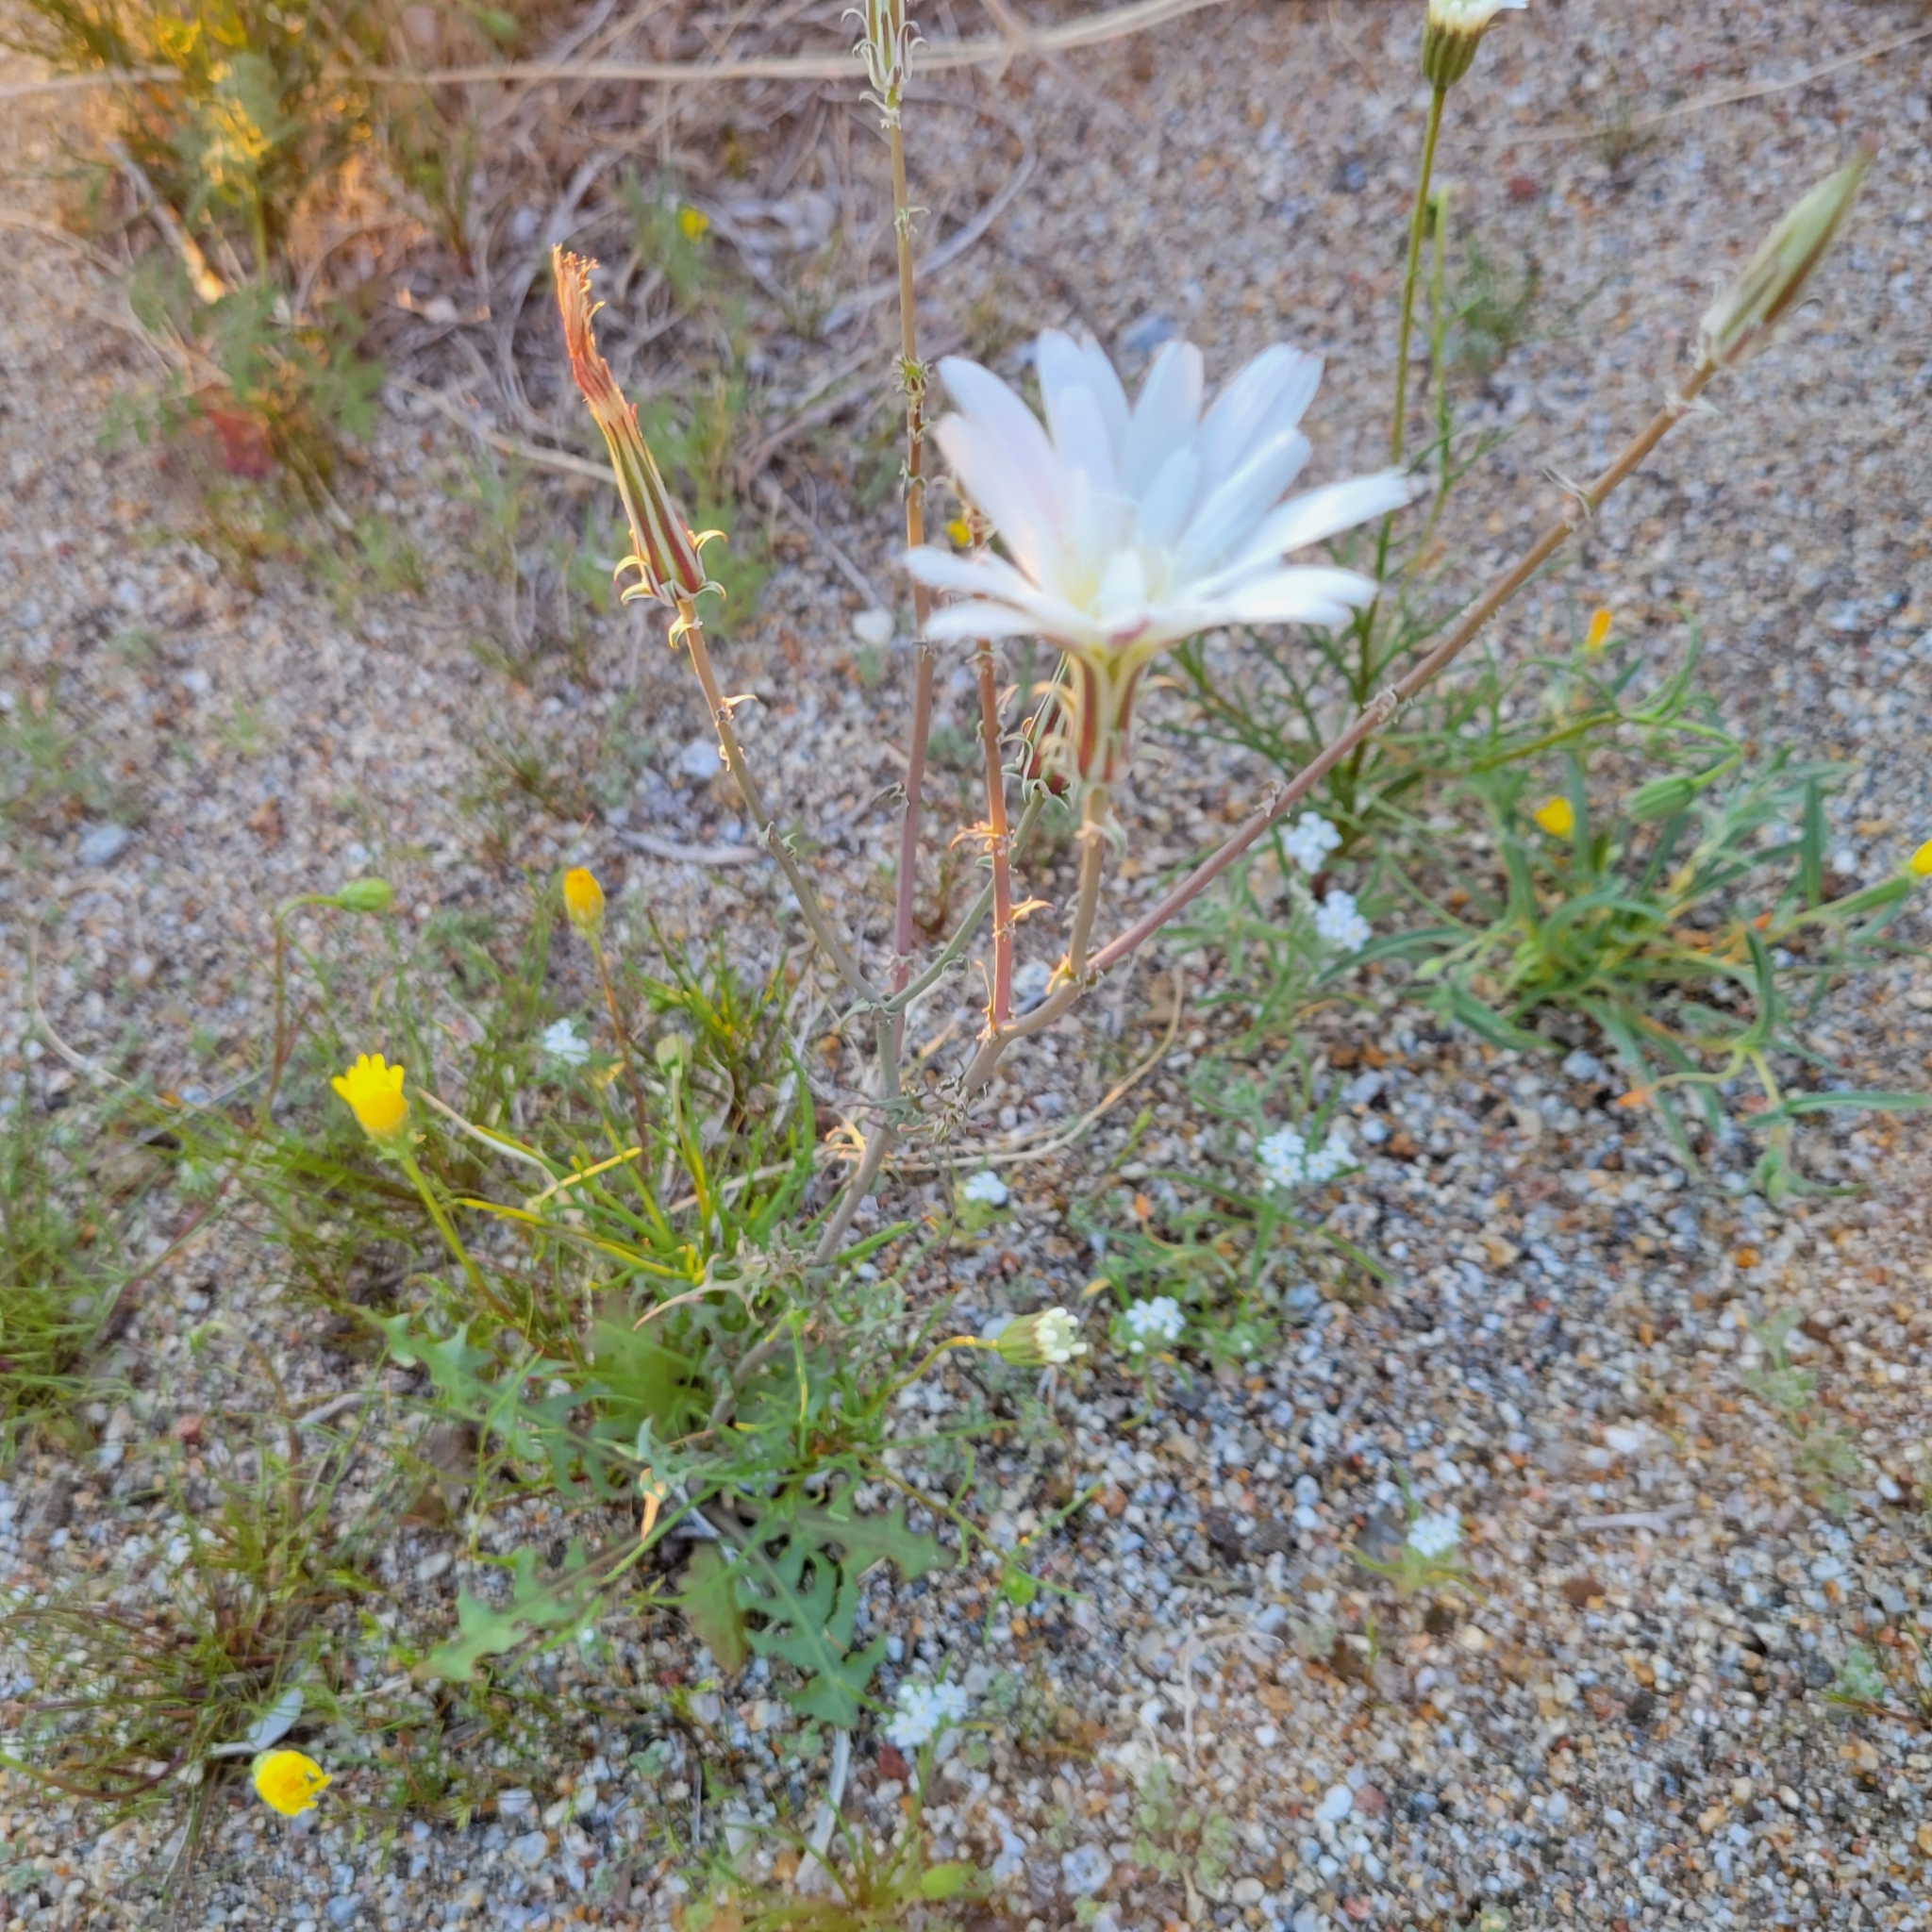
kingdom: Plantae
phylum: Tracheophyta
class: Magnoliopsida
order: Asterales
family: Asteraceae
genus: Rafinesquia
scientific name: Rafinesquia neomexicana
